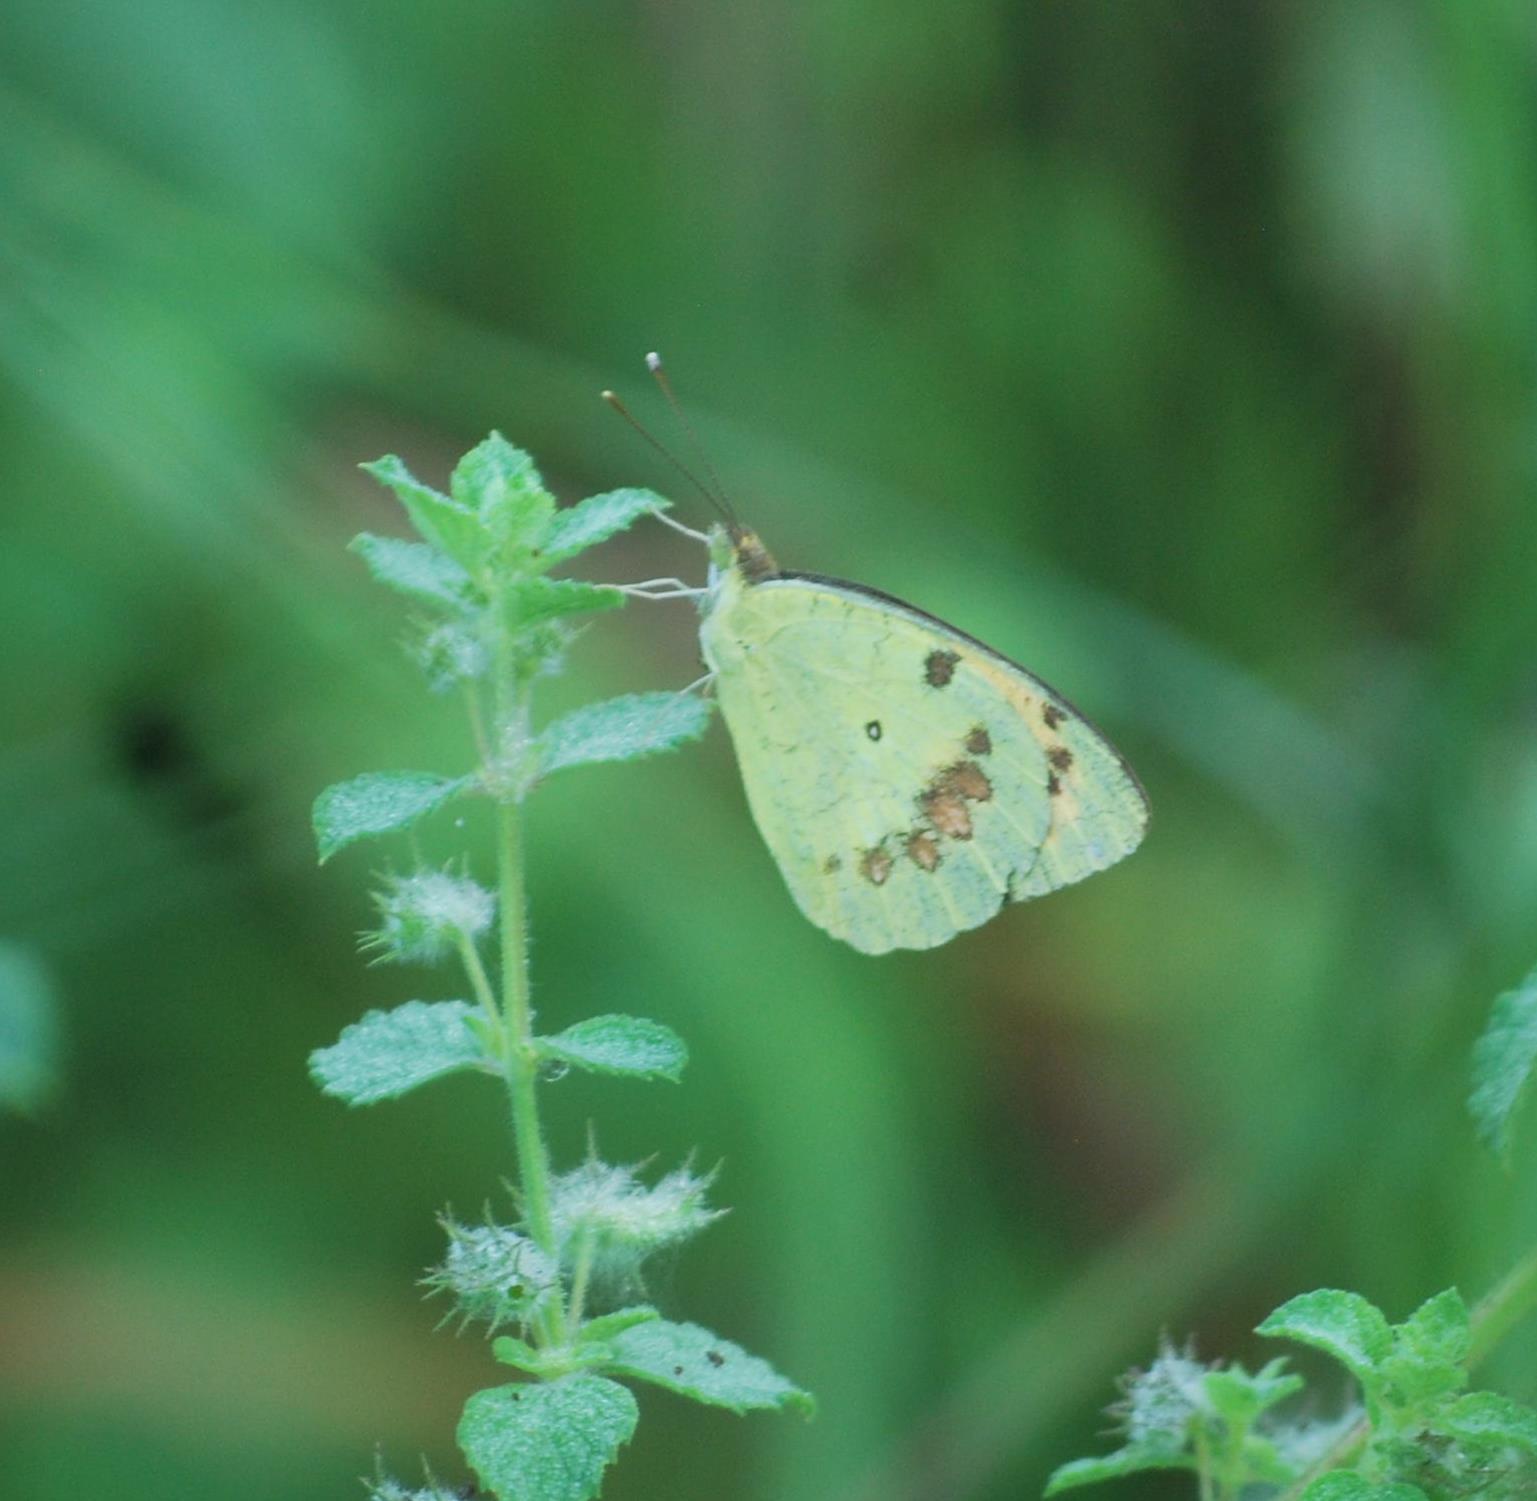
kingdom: Animalia
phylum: Arthropoda
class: Insecta
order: Lepidoptera
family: Pieridae
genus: Ixias
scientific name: Ixias marianne
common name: White orange tip
